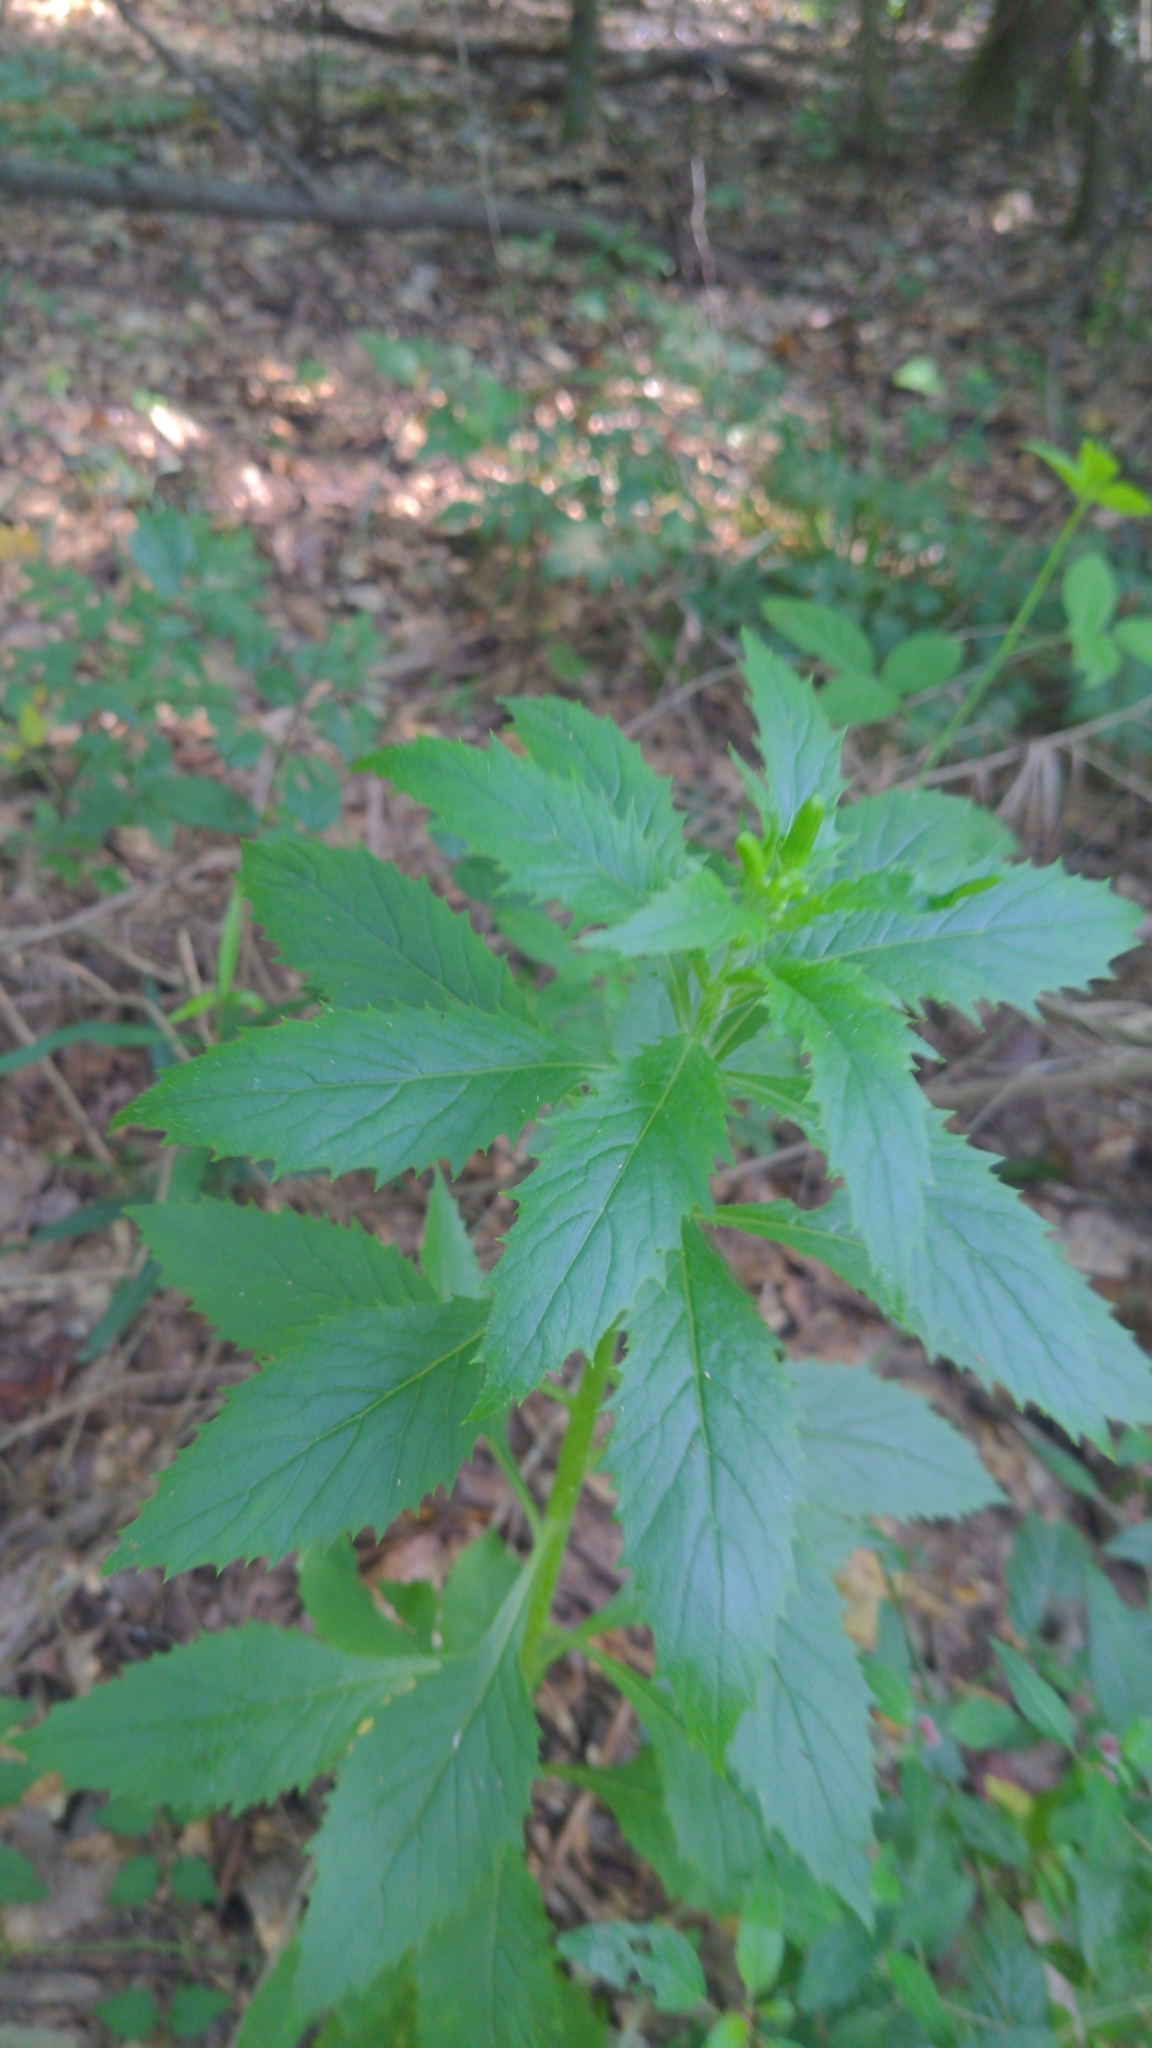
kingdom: Plantae
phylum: Tracheophyta
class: Magnoliopsida
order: Asterales
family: Asteraceae
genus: Erechtites
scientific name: Erechtites hieraciifolius
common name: American burnweed
